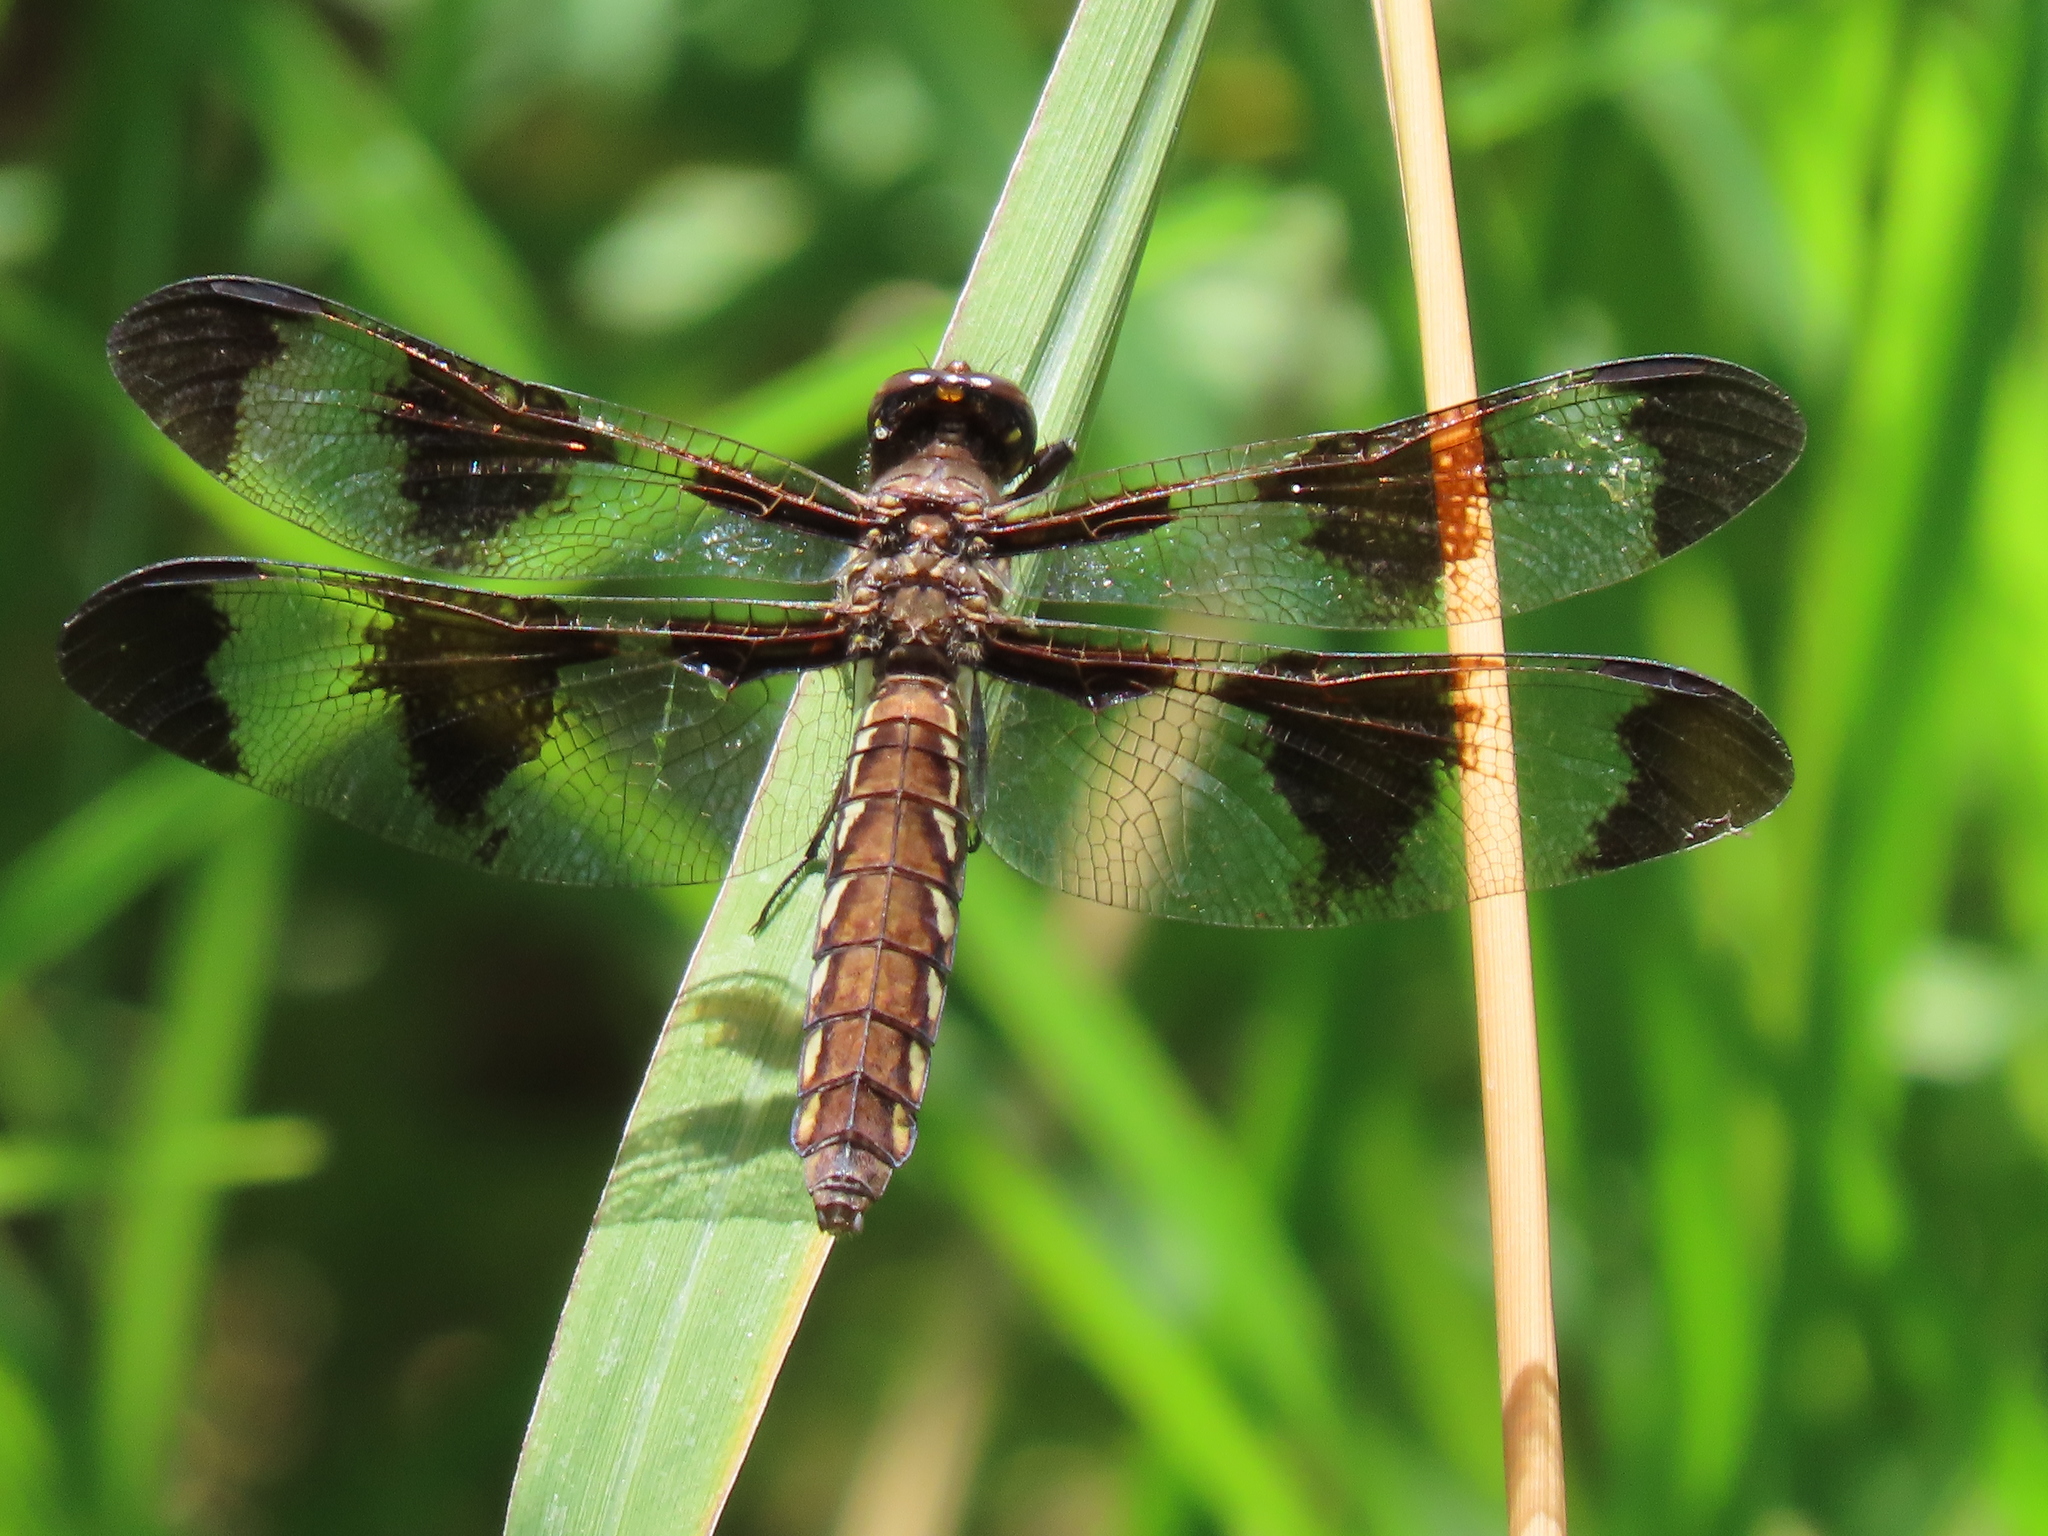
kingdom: Animalia
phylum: Arthropoda
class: Insecta
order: Odonata
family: Libellulidae
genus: Plathemis
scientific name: Plathemis lydia
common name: Common whitetail
